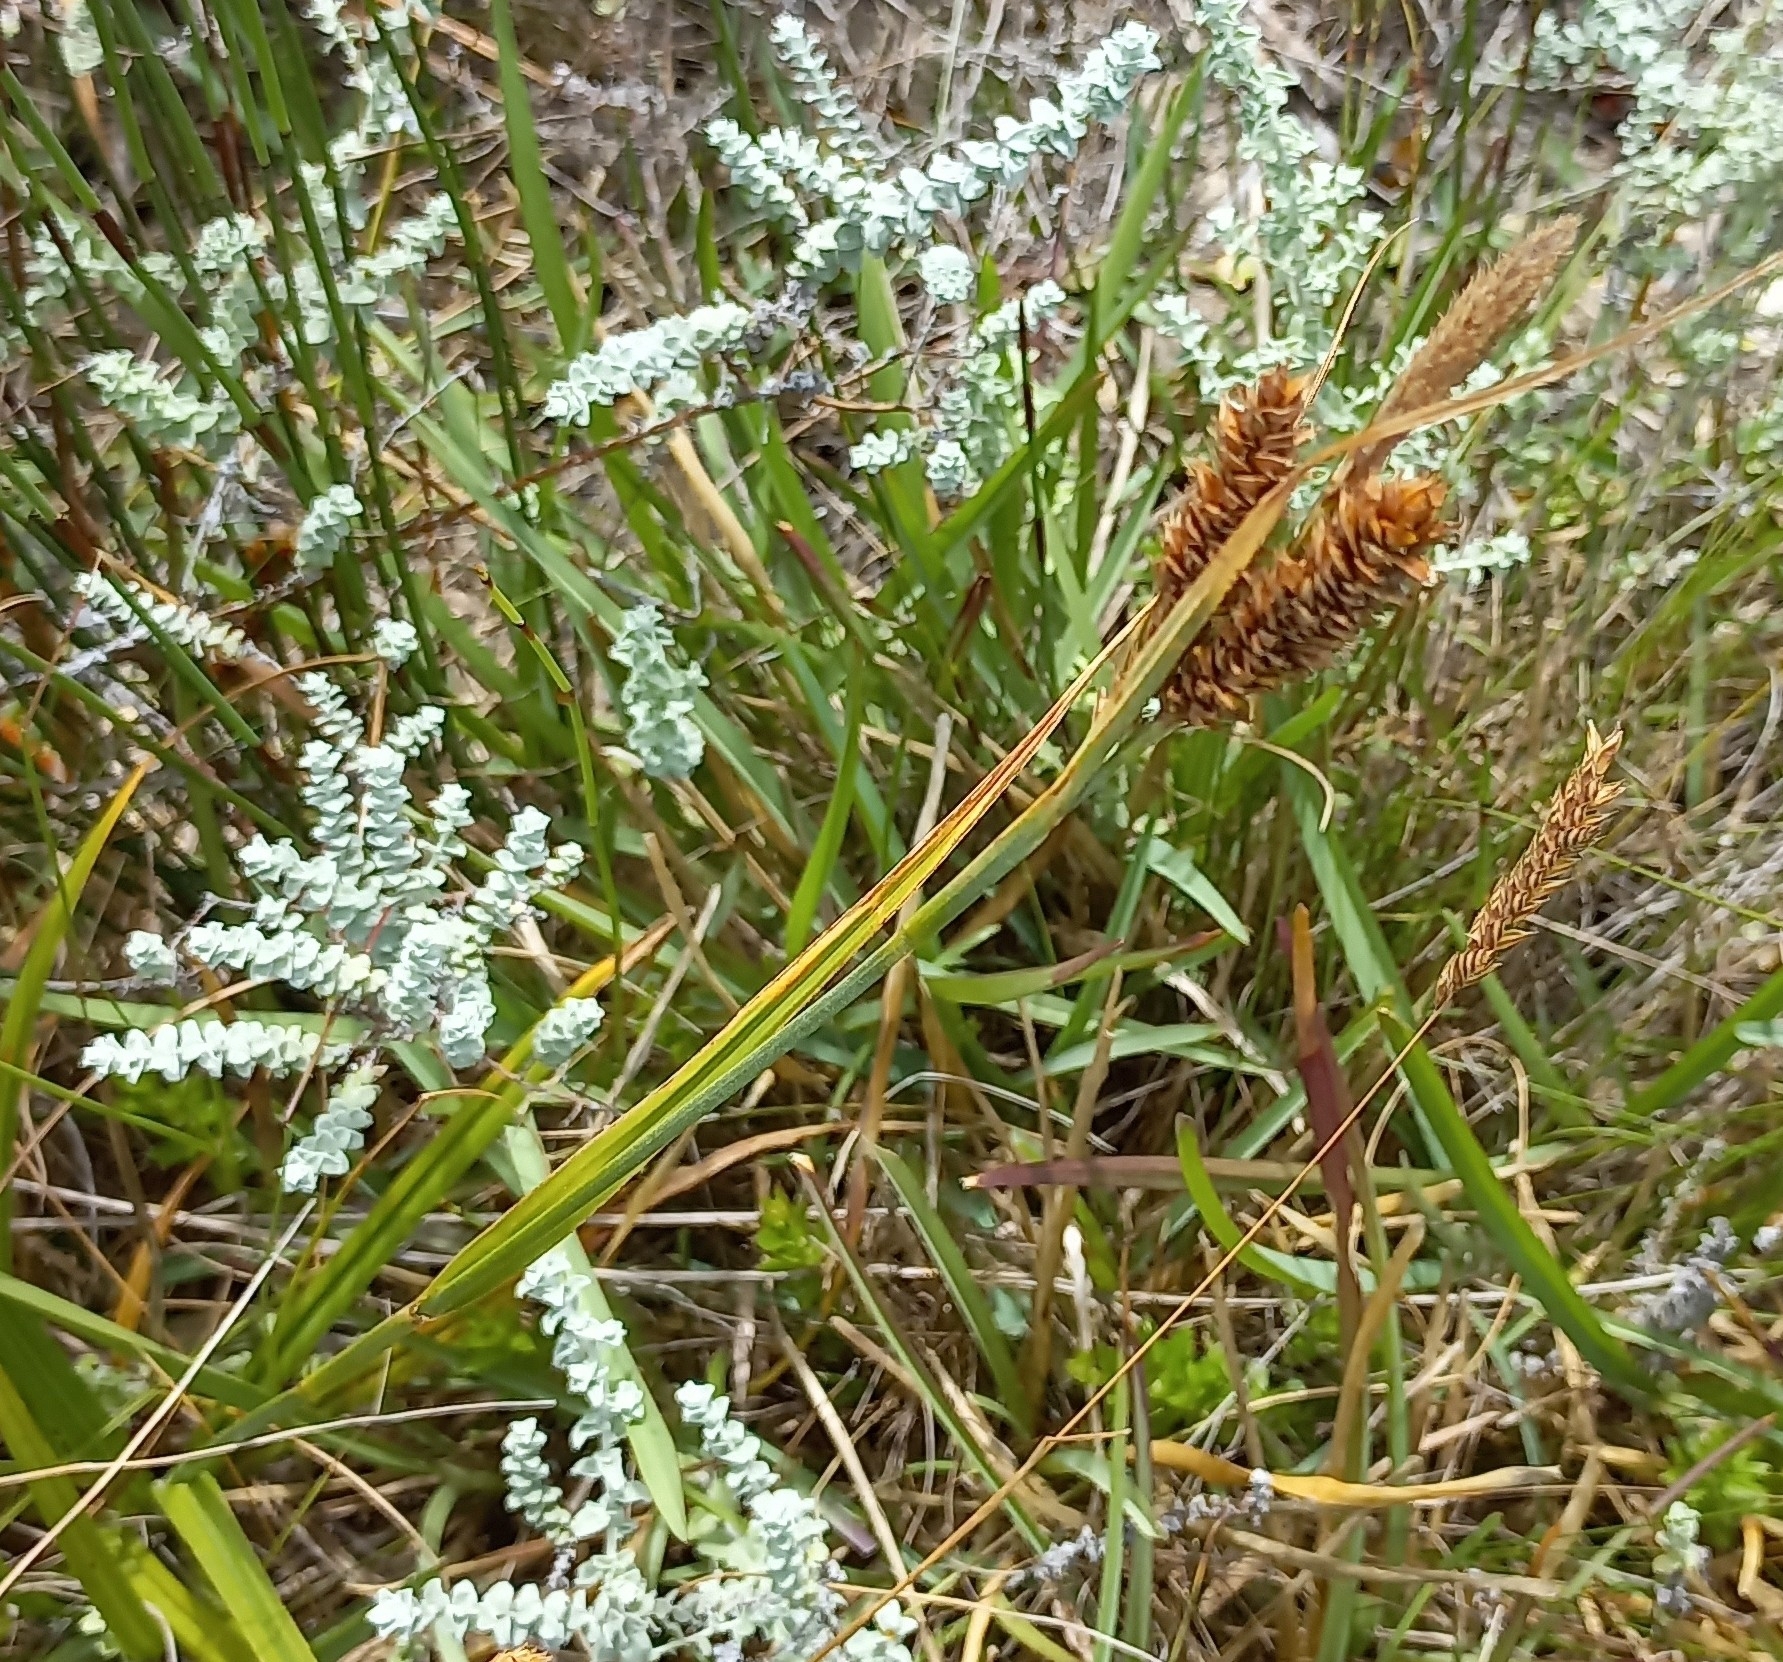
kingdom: Plantae
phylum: Tracheophyta
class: Liliopsida
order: Poales
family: Cyperaceae
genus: Carex
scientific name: Carex aethiopica
